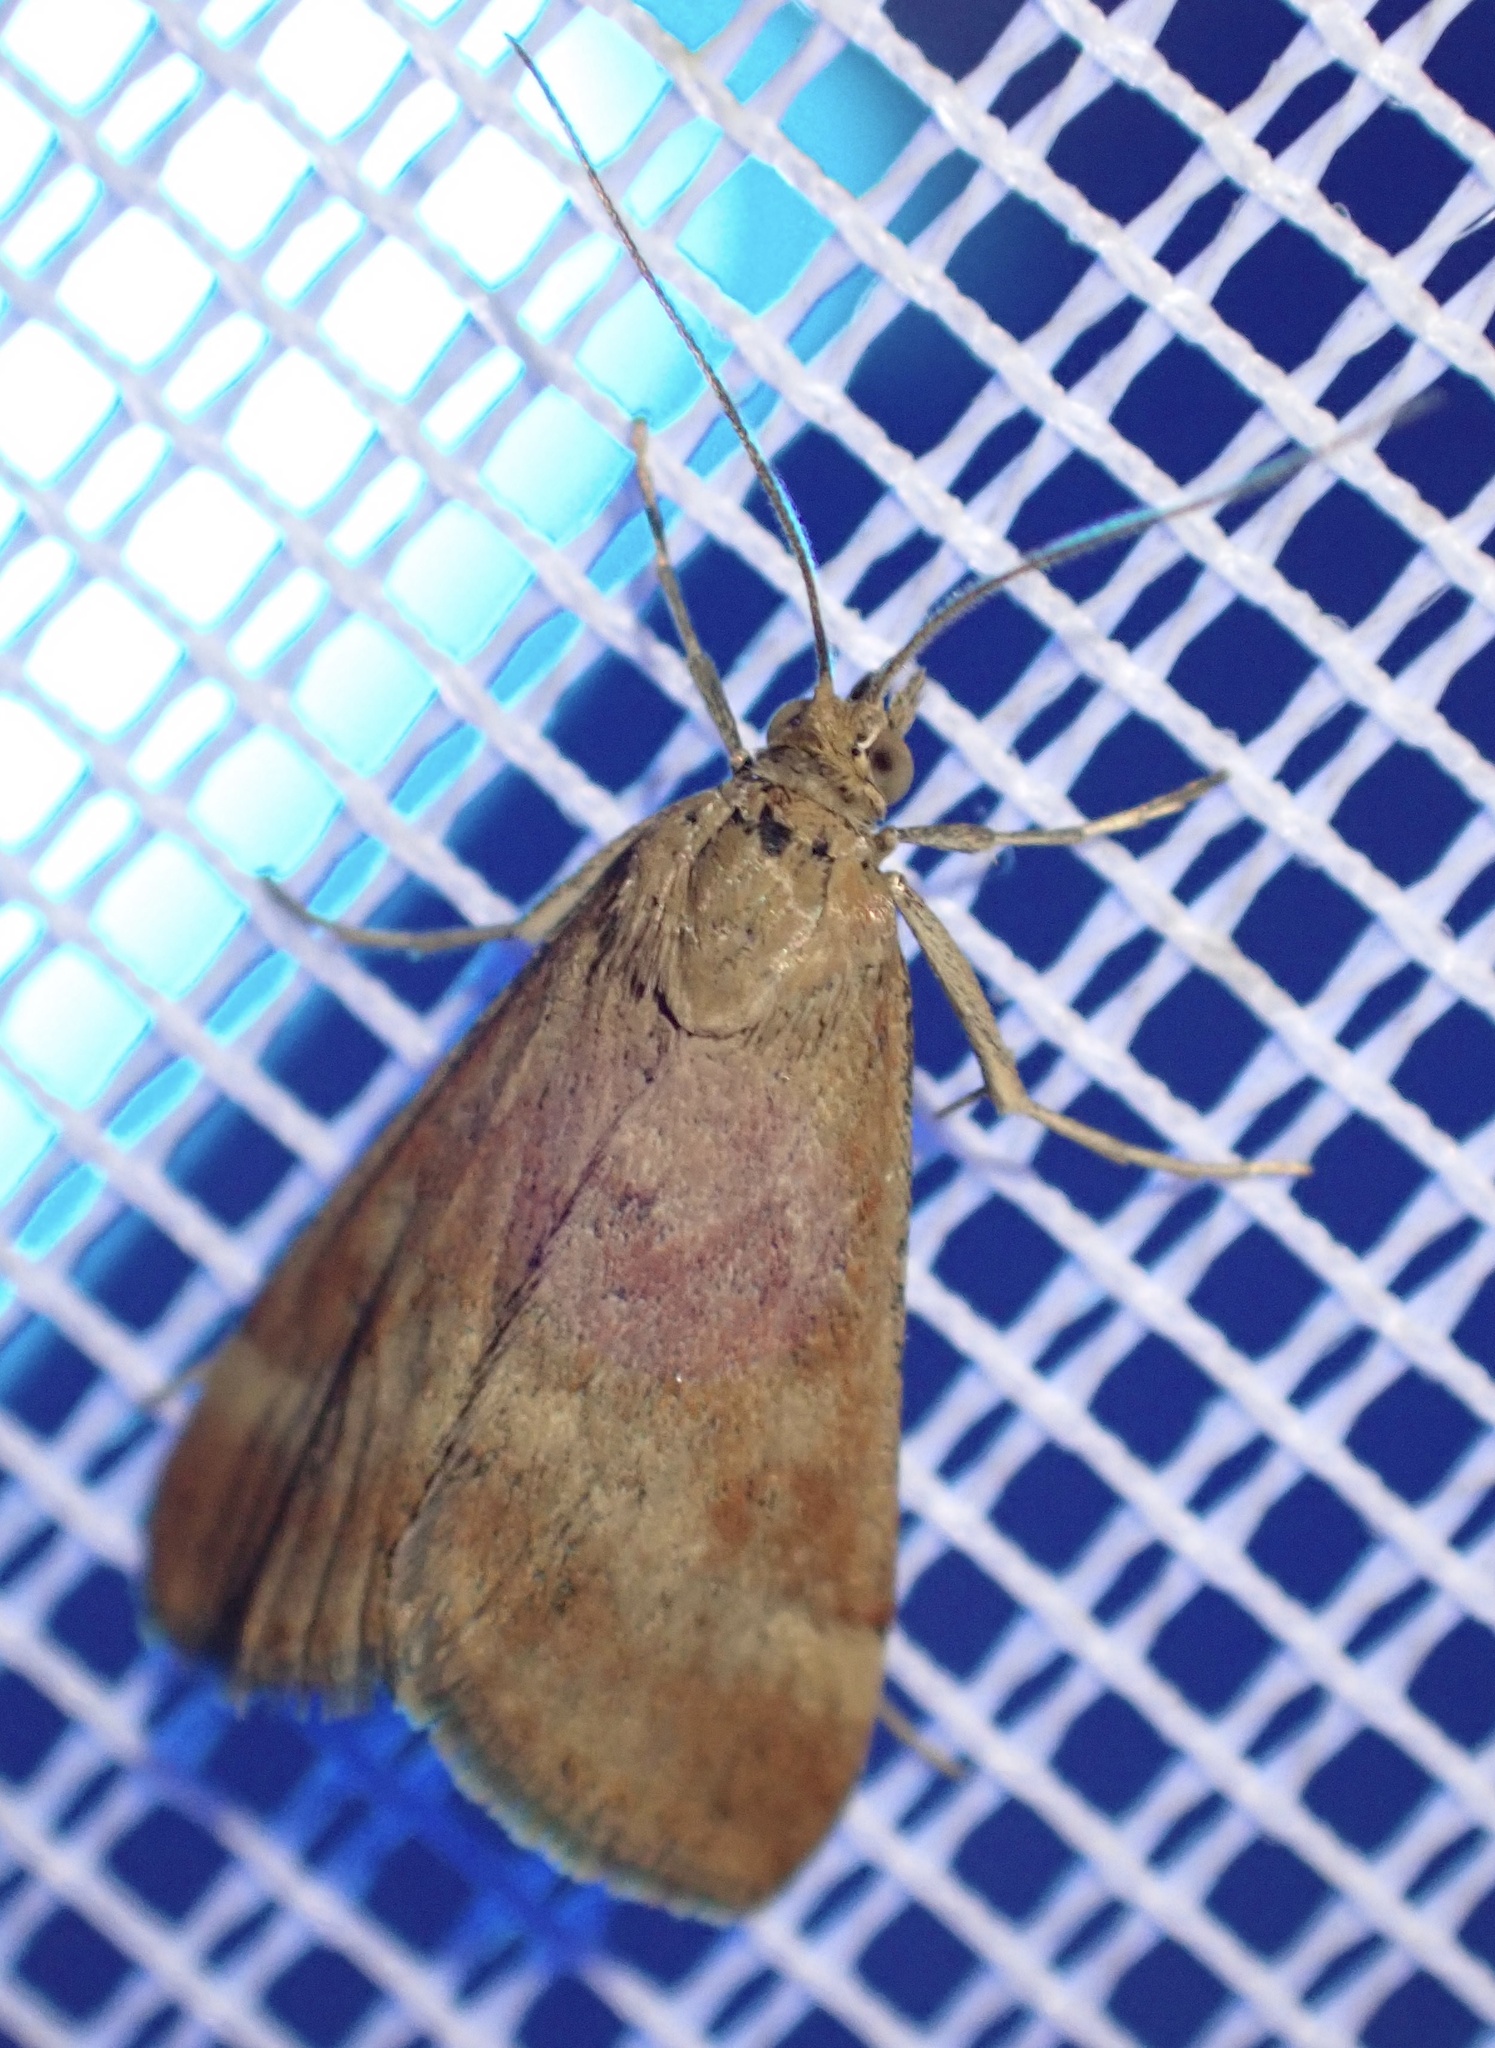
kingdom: Animalia
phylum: Arthropoda
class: Insecta
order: Lepidoptera
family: Crambidae
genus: Pyrausta
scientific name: Pyrausta despicata
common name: Straw-barred pearl
